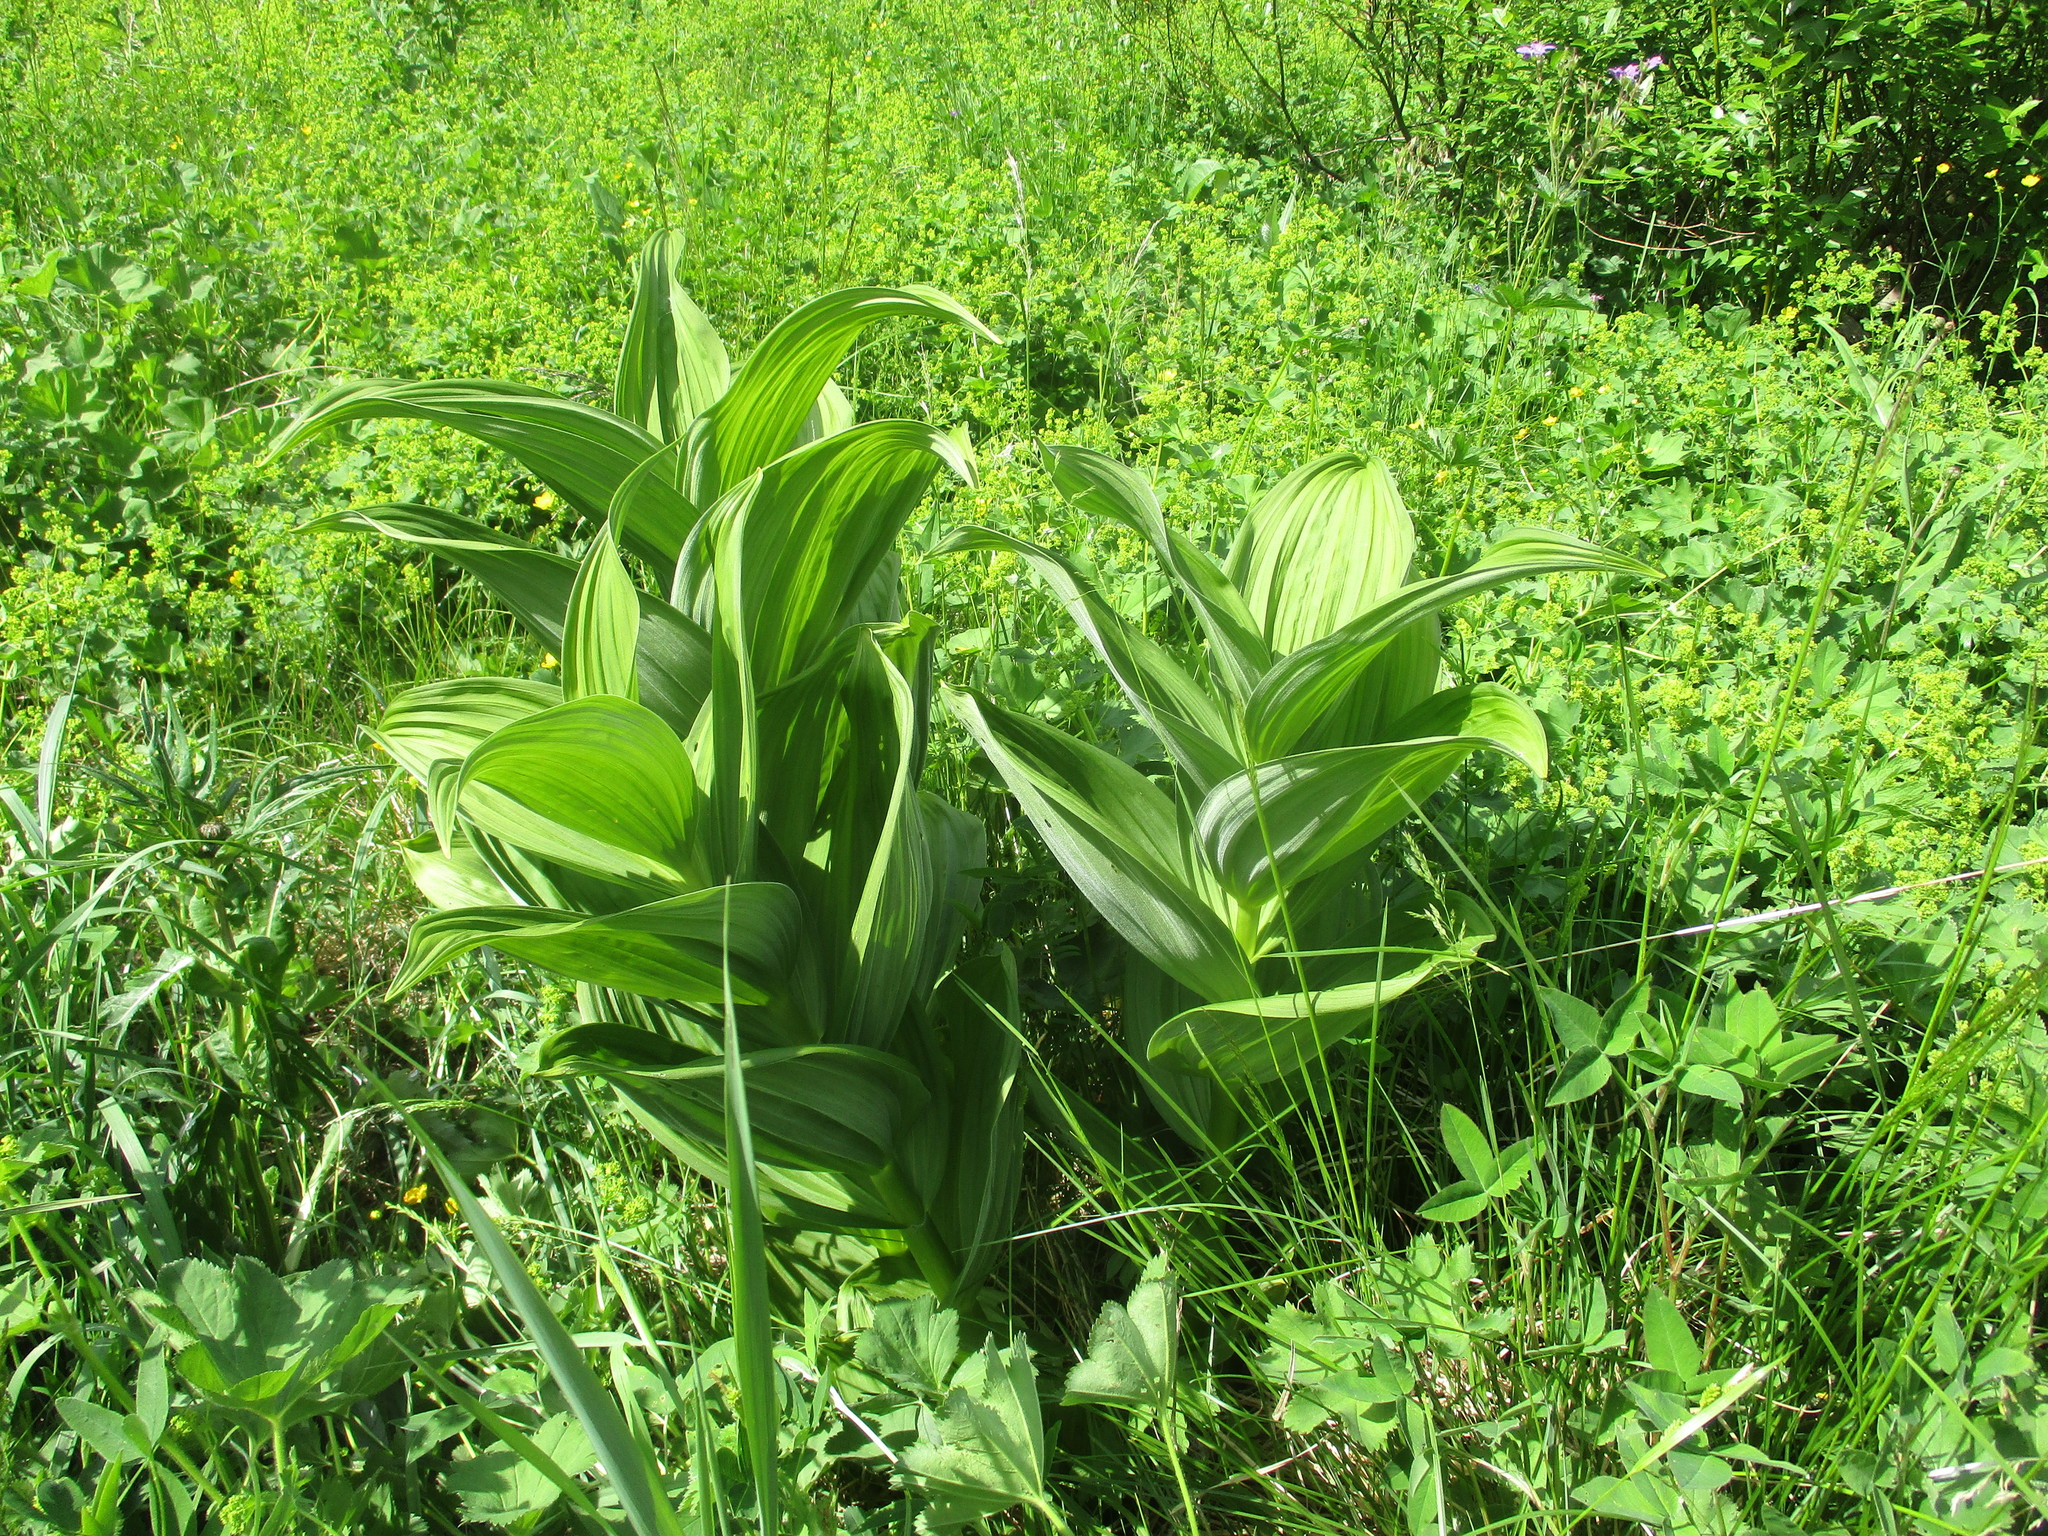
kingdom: Plantae
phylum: Tracheophyta
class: Liliopsida
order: Liliales
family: Melanthiaceae
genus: Veratrum
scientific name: Veratrum lobelianum
